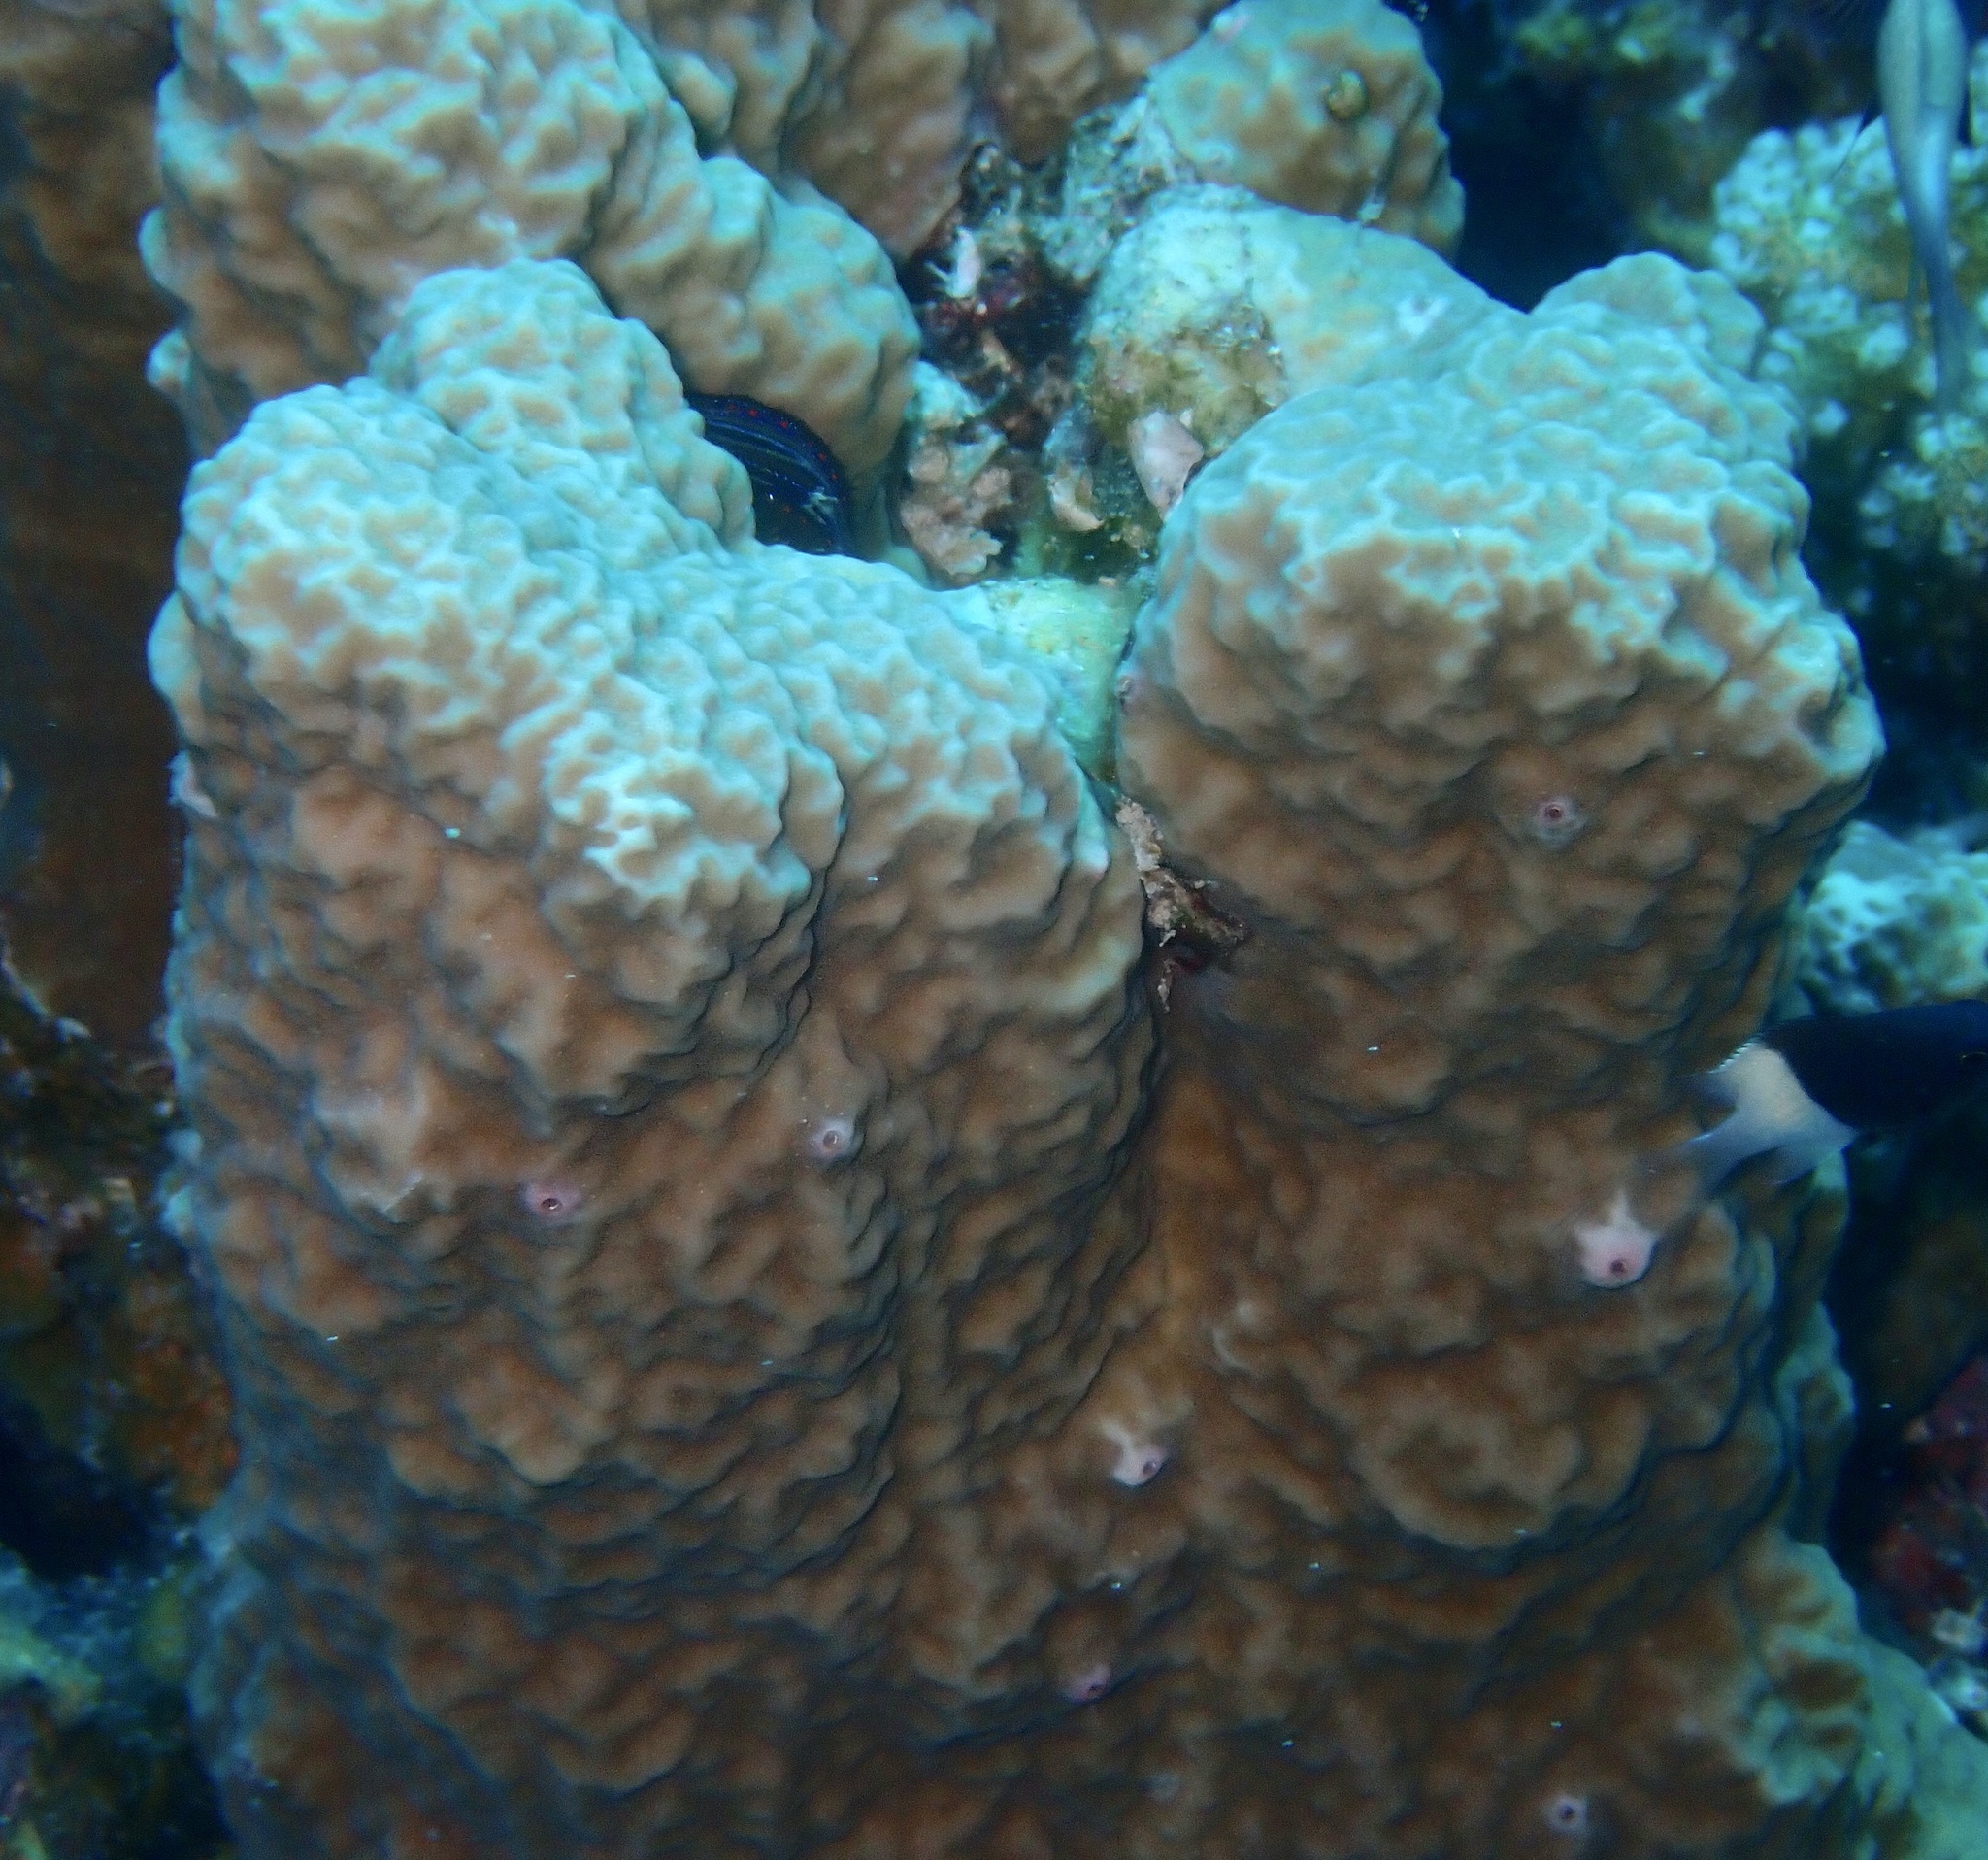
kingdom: Animalia
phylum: Cnidaria
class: Anthozoa
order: Scleractinia
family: Poritidae
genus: Porites
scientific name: Porites rus
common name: Hump coral
